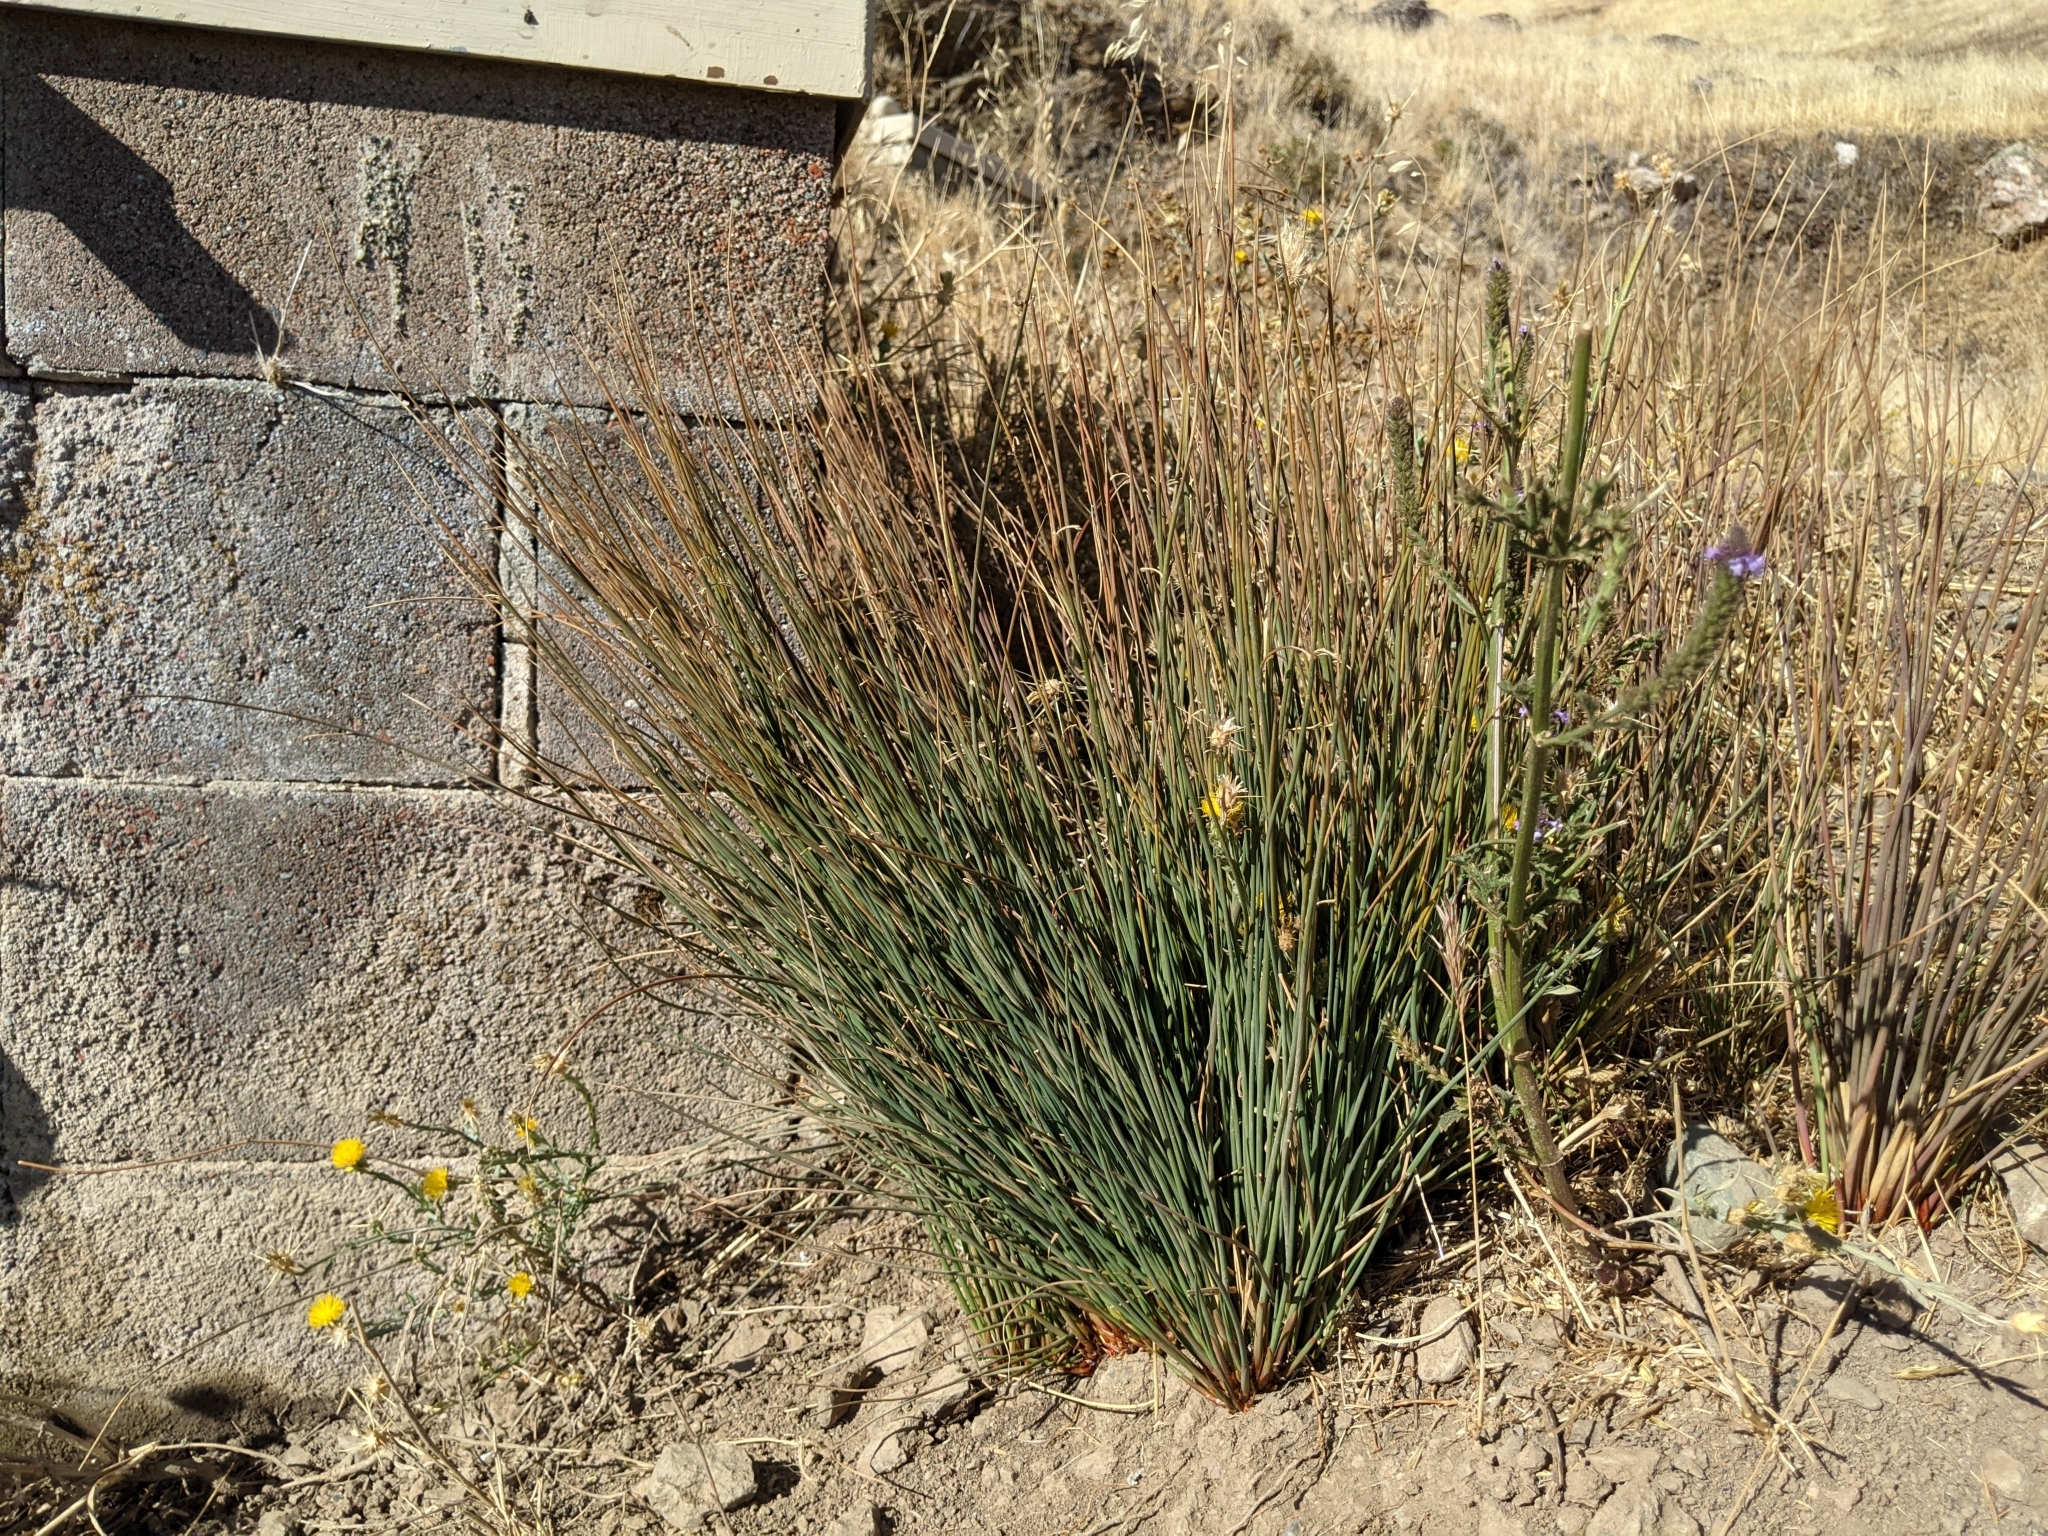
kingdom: Plantae
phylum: Tracheophyta
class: Liliopsida
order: Poales
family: Juncaceae
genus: Juncus
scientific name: Juncus patens
